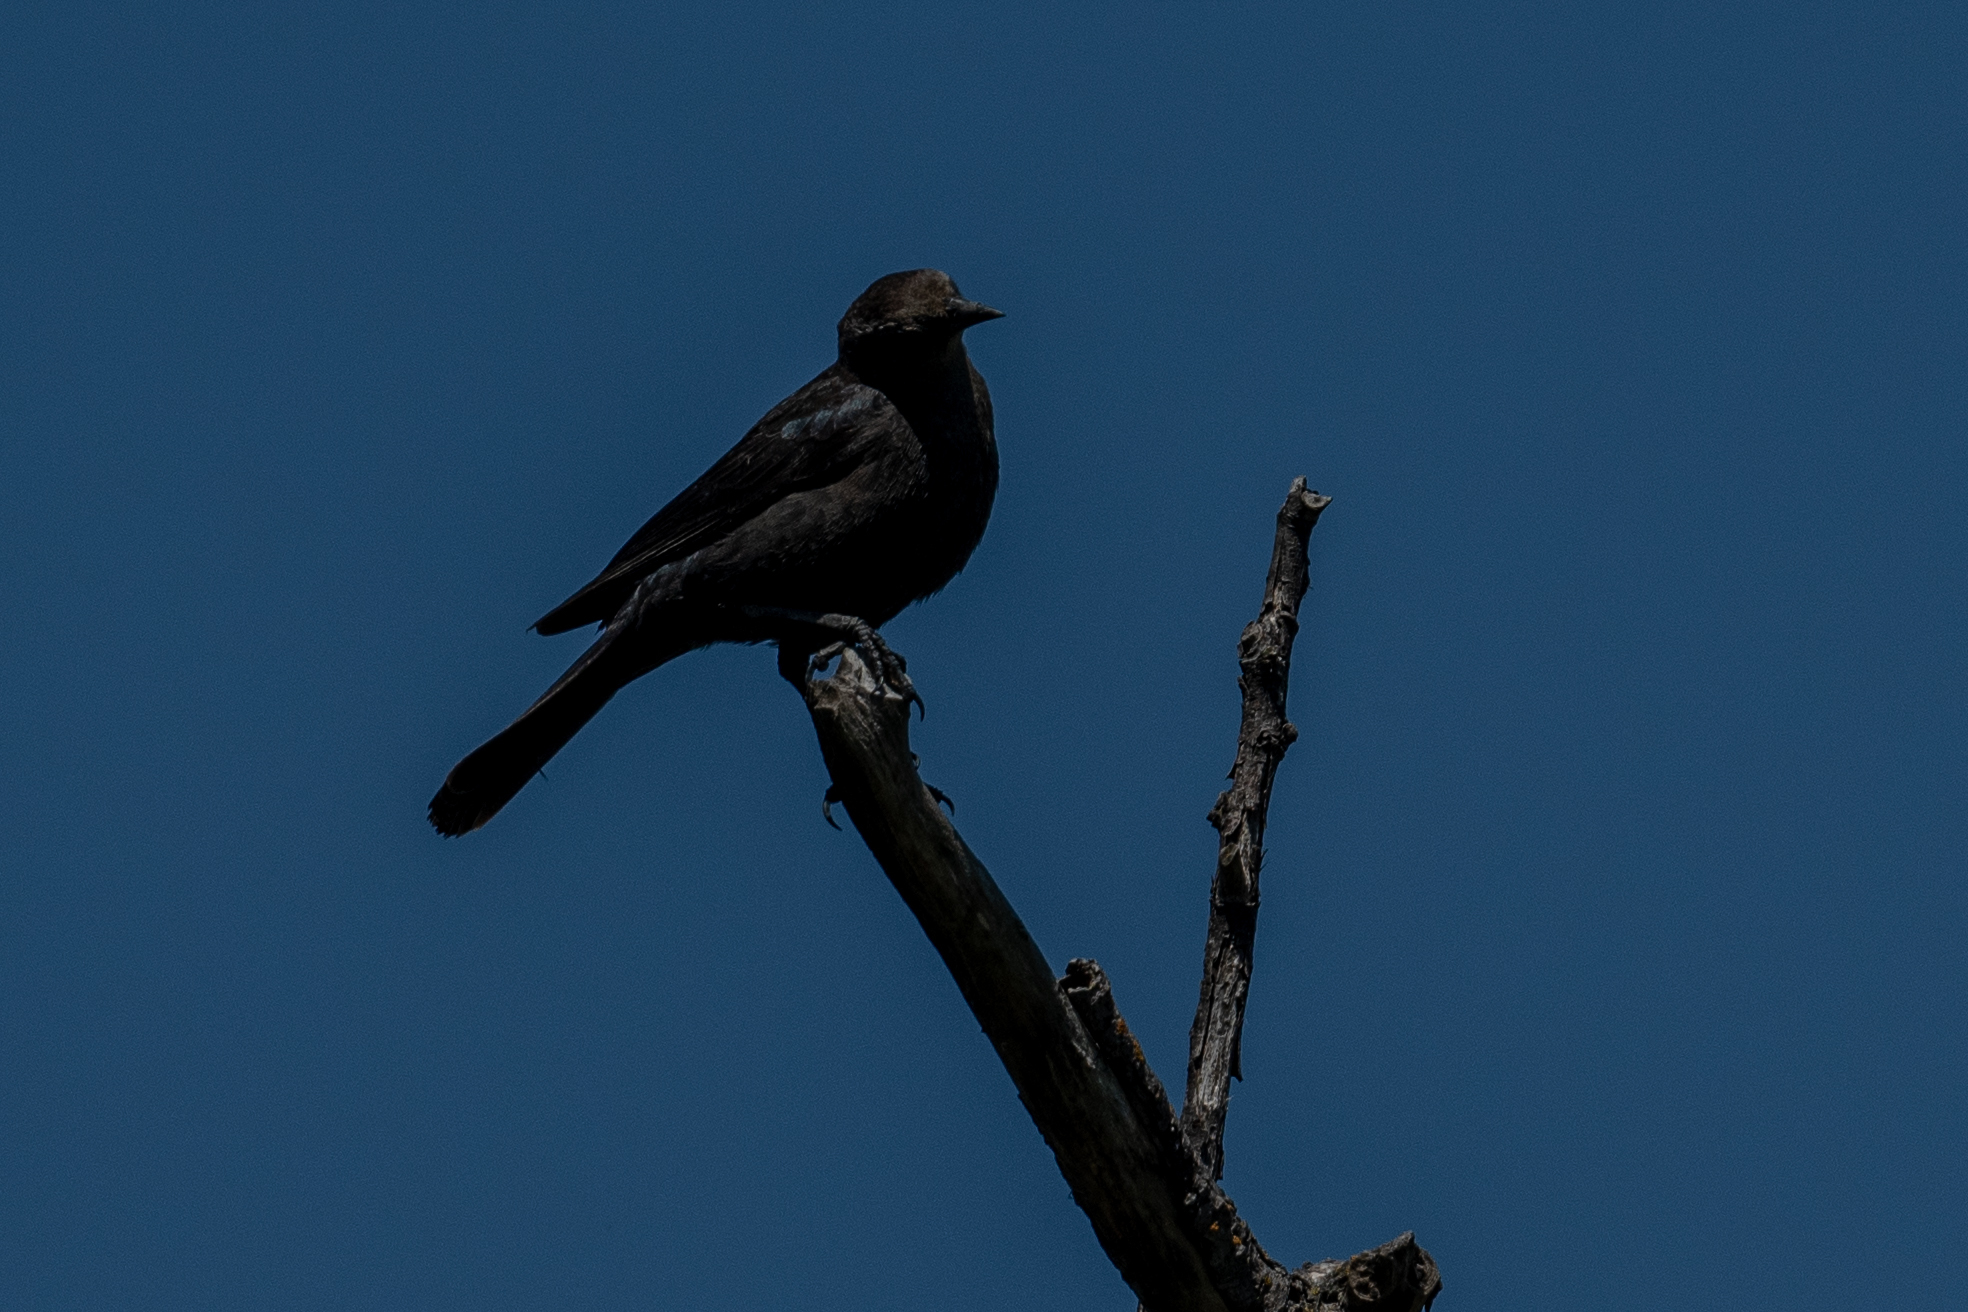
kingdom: Animalia
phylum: Chordata
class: Aves
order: Passeriformes
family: Icteridae
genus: Euphagus
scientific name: Euphagus cyanocephalus
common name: Brewer's blackbird
